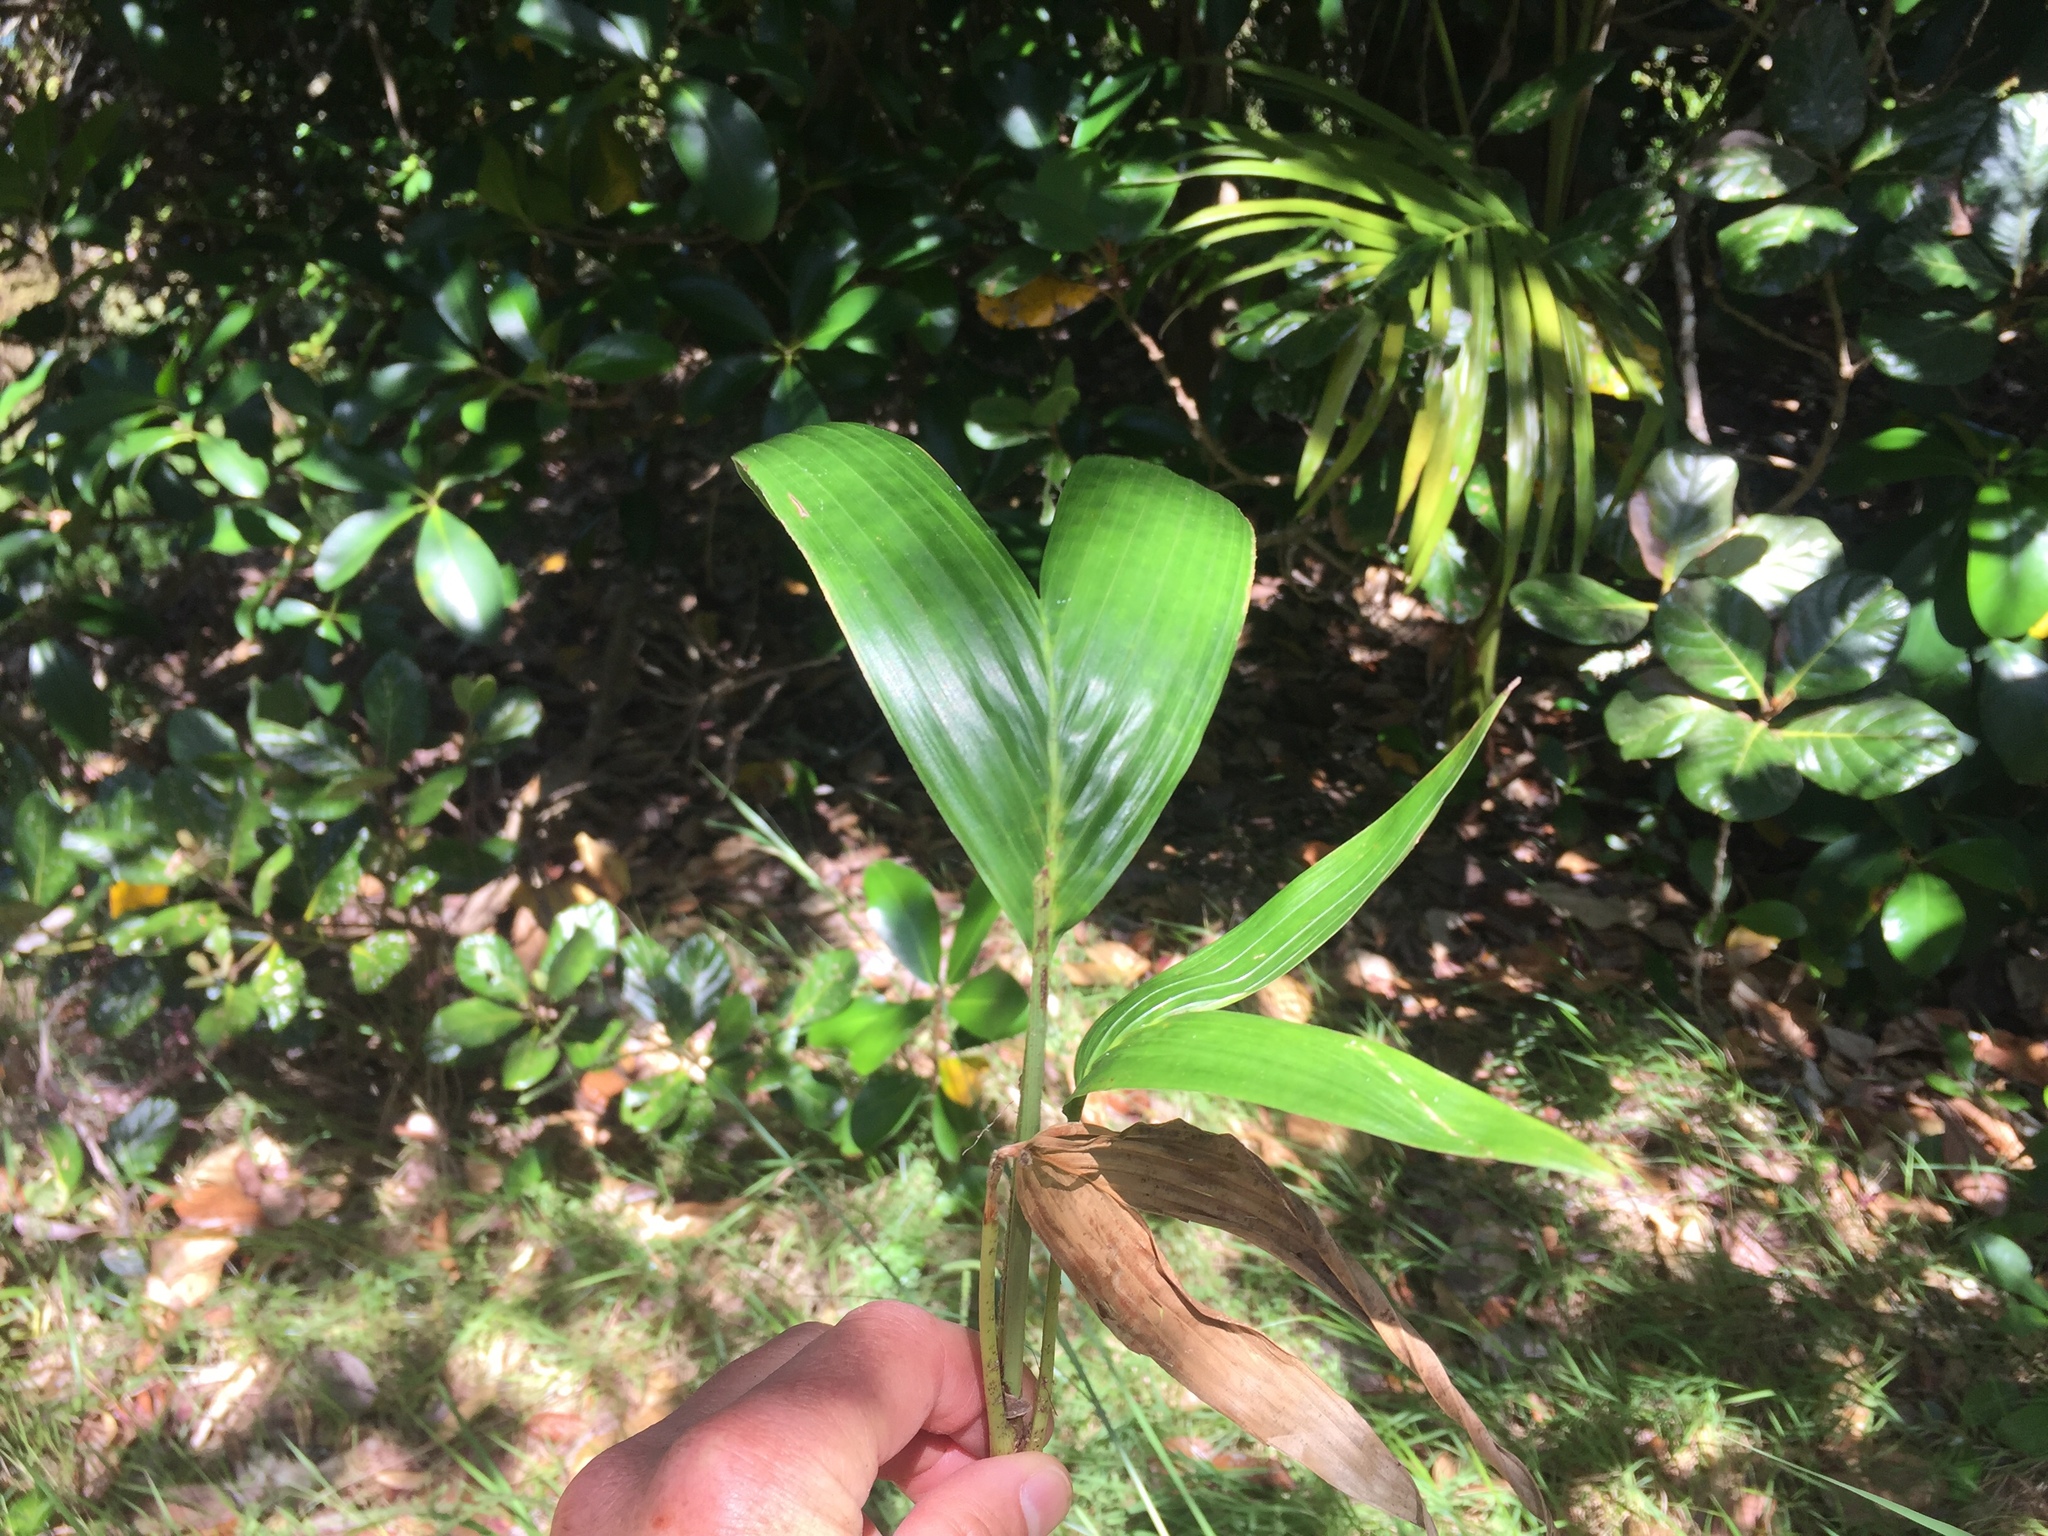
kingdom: Plantae
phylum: Tracheophyta
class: Liliopsida
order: Arecales
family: Arecaceae
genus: Archontophoenix
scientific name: Archontophoenix cunninghamiana
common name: Piccabeen bangalow palm
